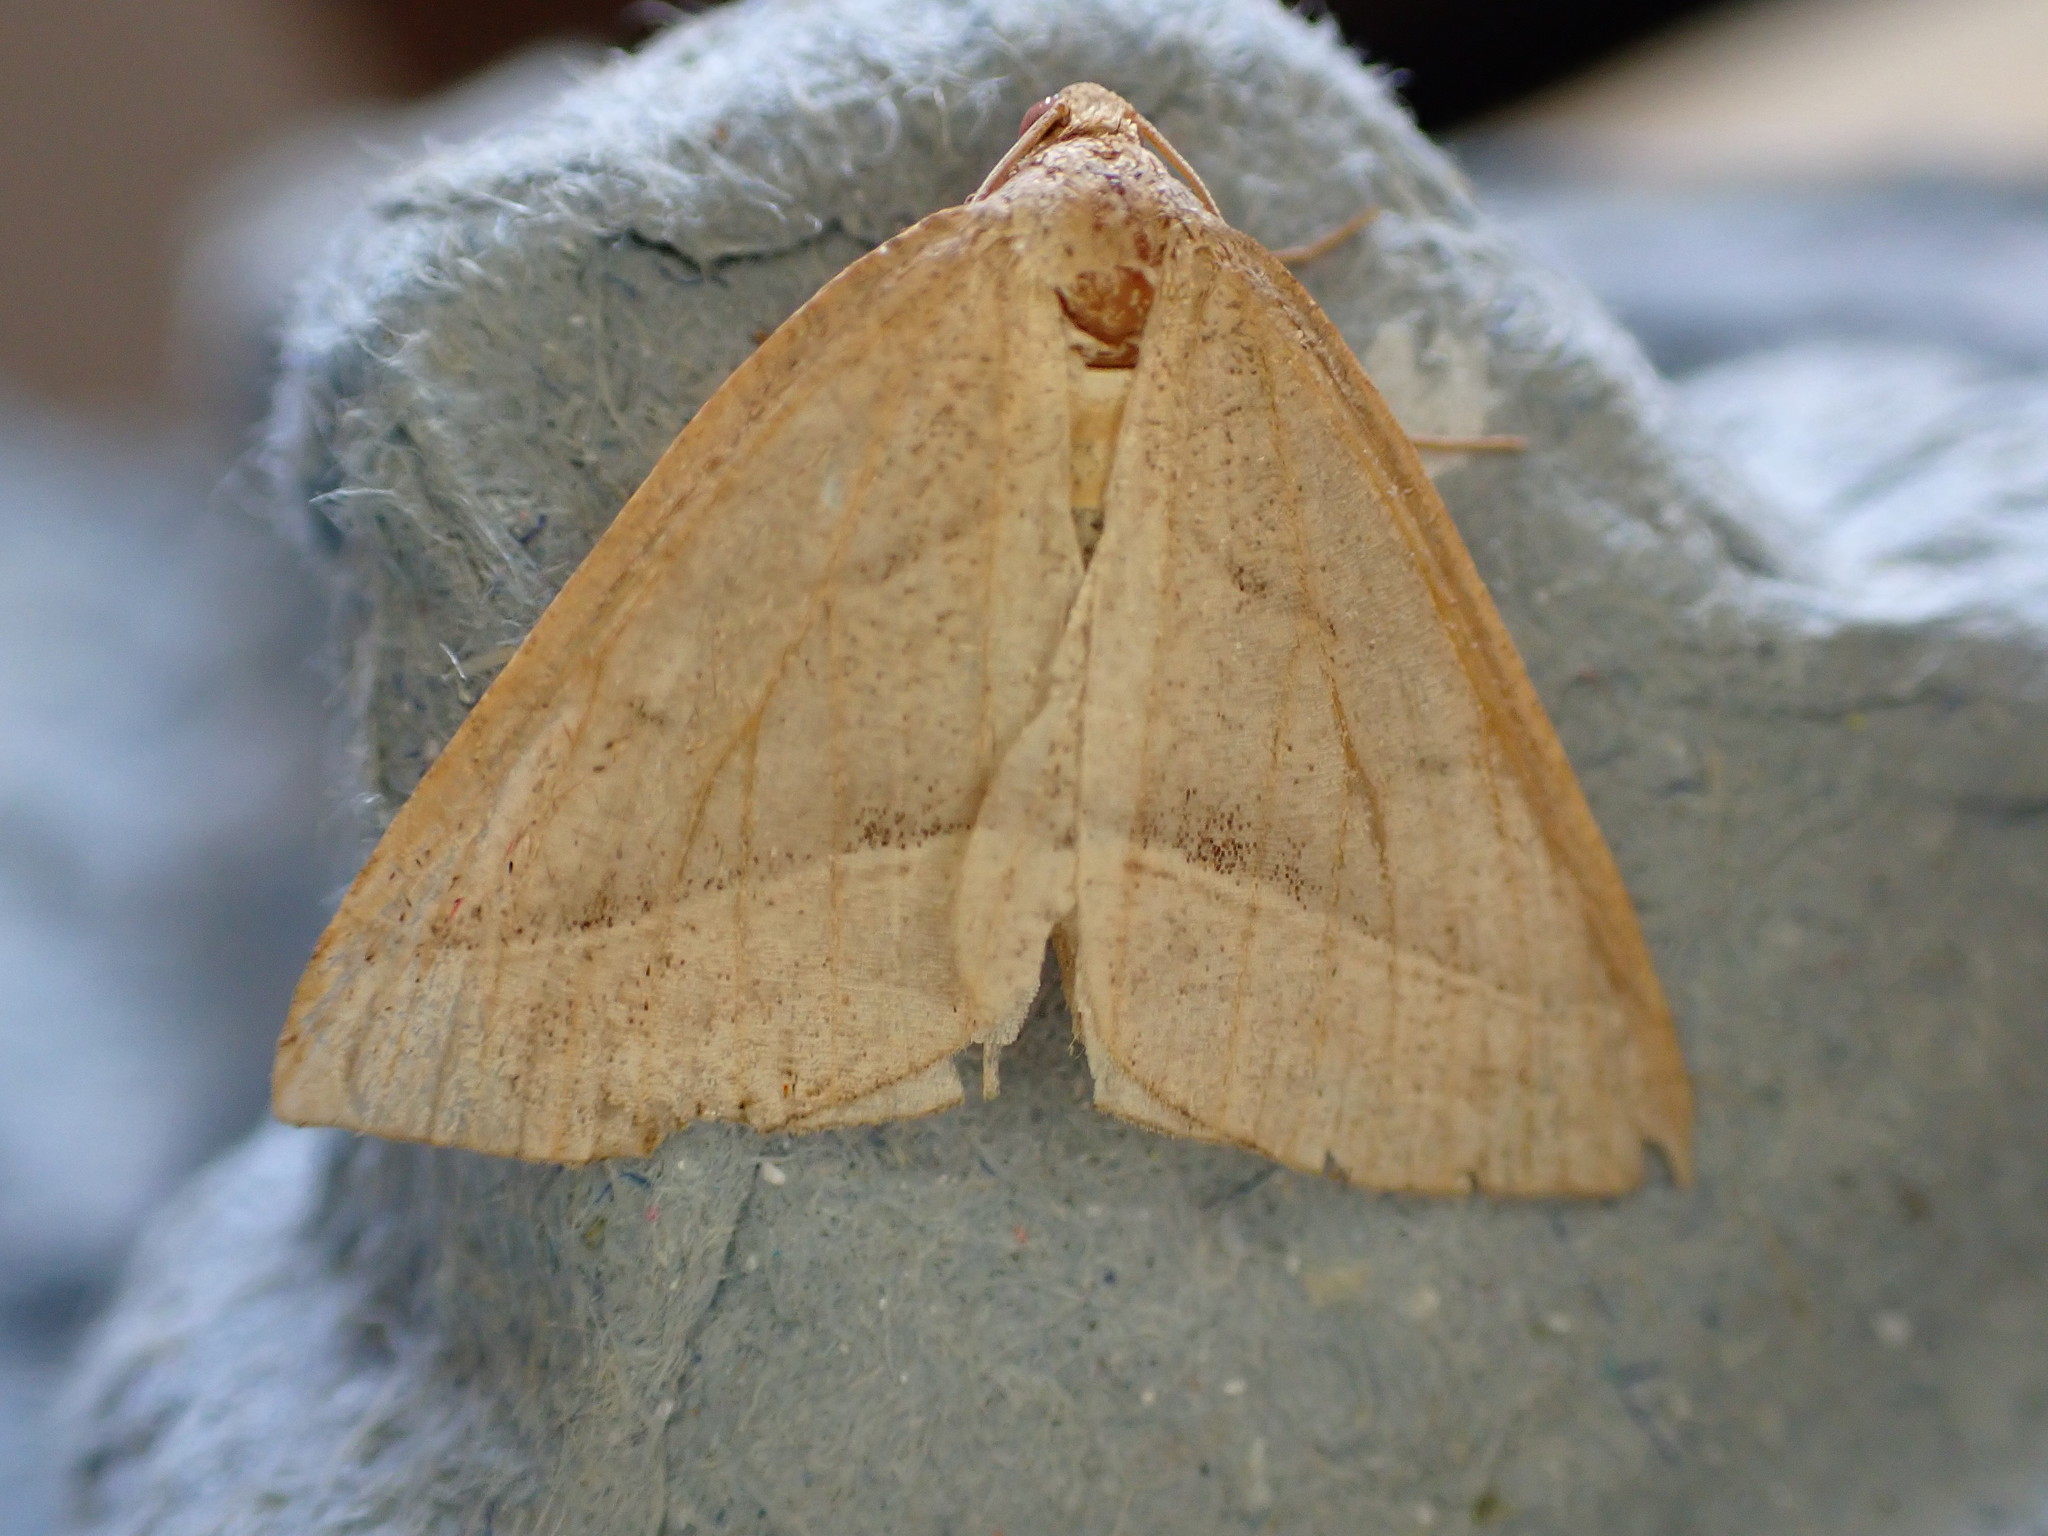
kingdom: Animalia
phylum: Arthropoda
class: Insecta
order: Lepidoptera
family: Pterophoridae
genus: Pterophorus
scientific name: Pterophorus Petrophora chlorosata
